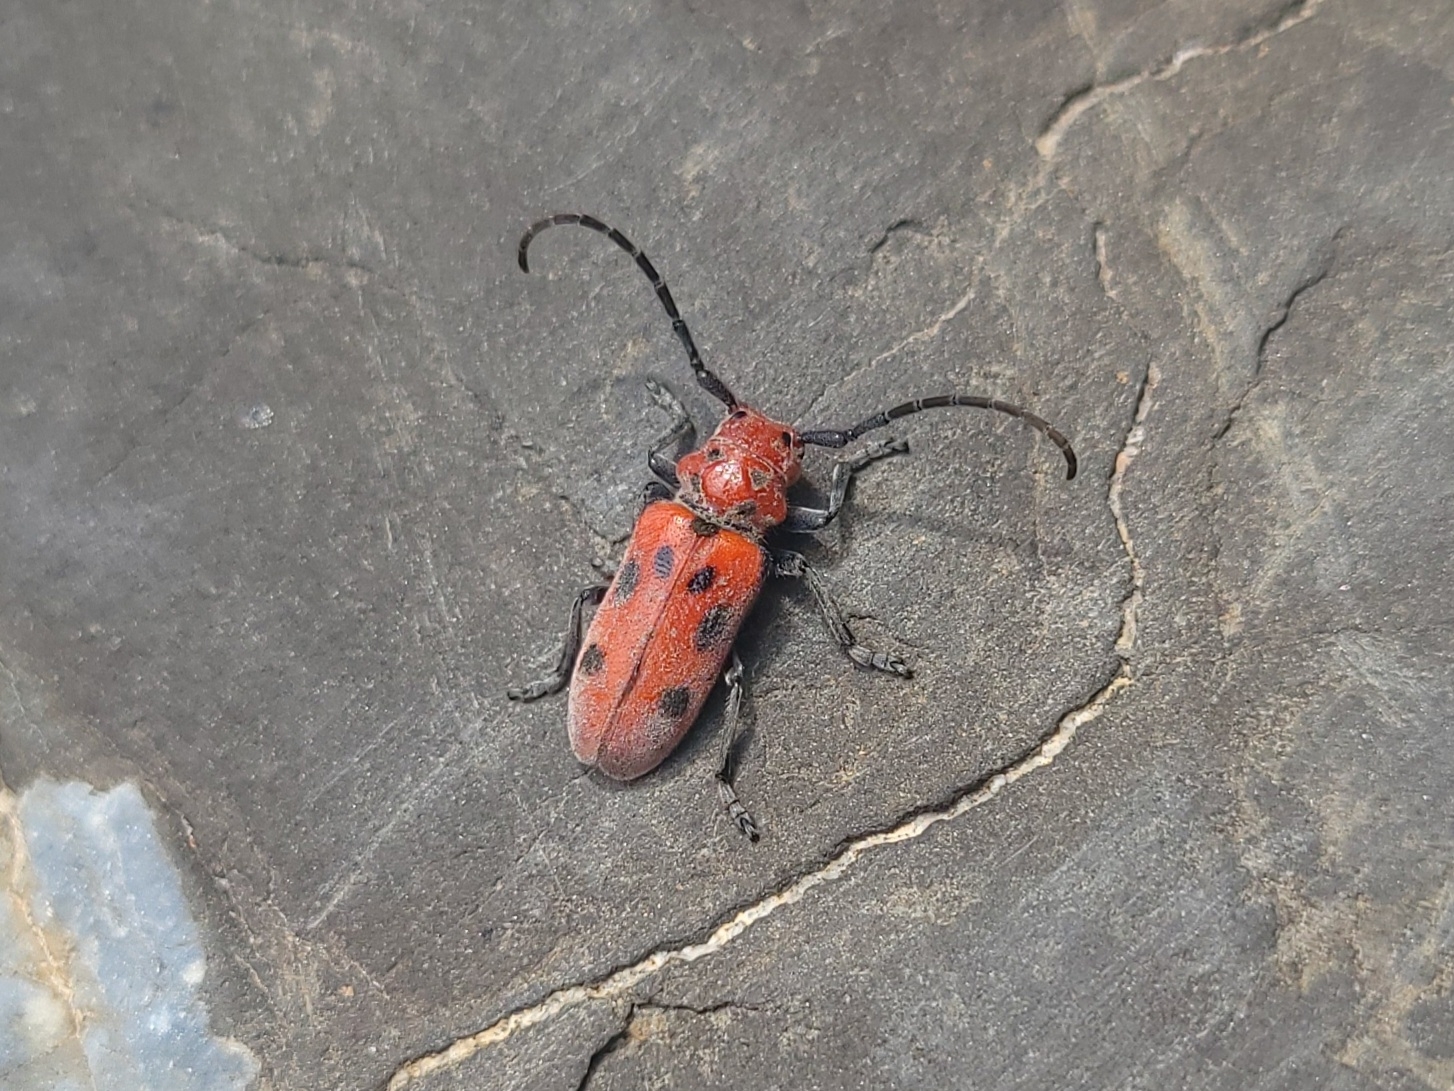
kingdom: Animalia
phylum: Arthropoda
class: Insecta
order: Coleoptera
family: Cerambycidae
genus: Tetraopes
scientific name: Tetraopes tetrophthalmus
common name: Red milkweed beetle
